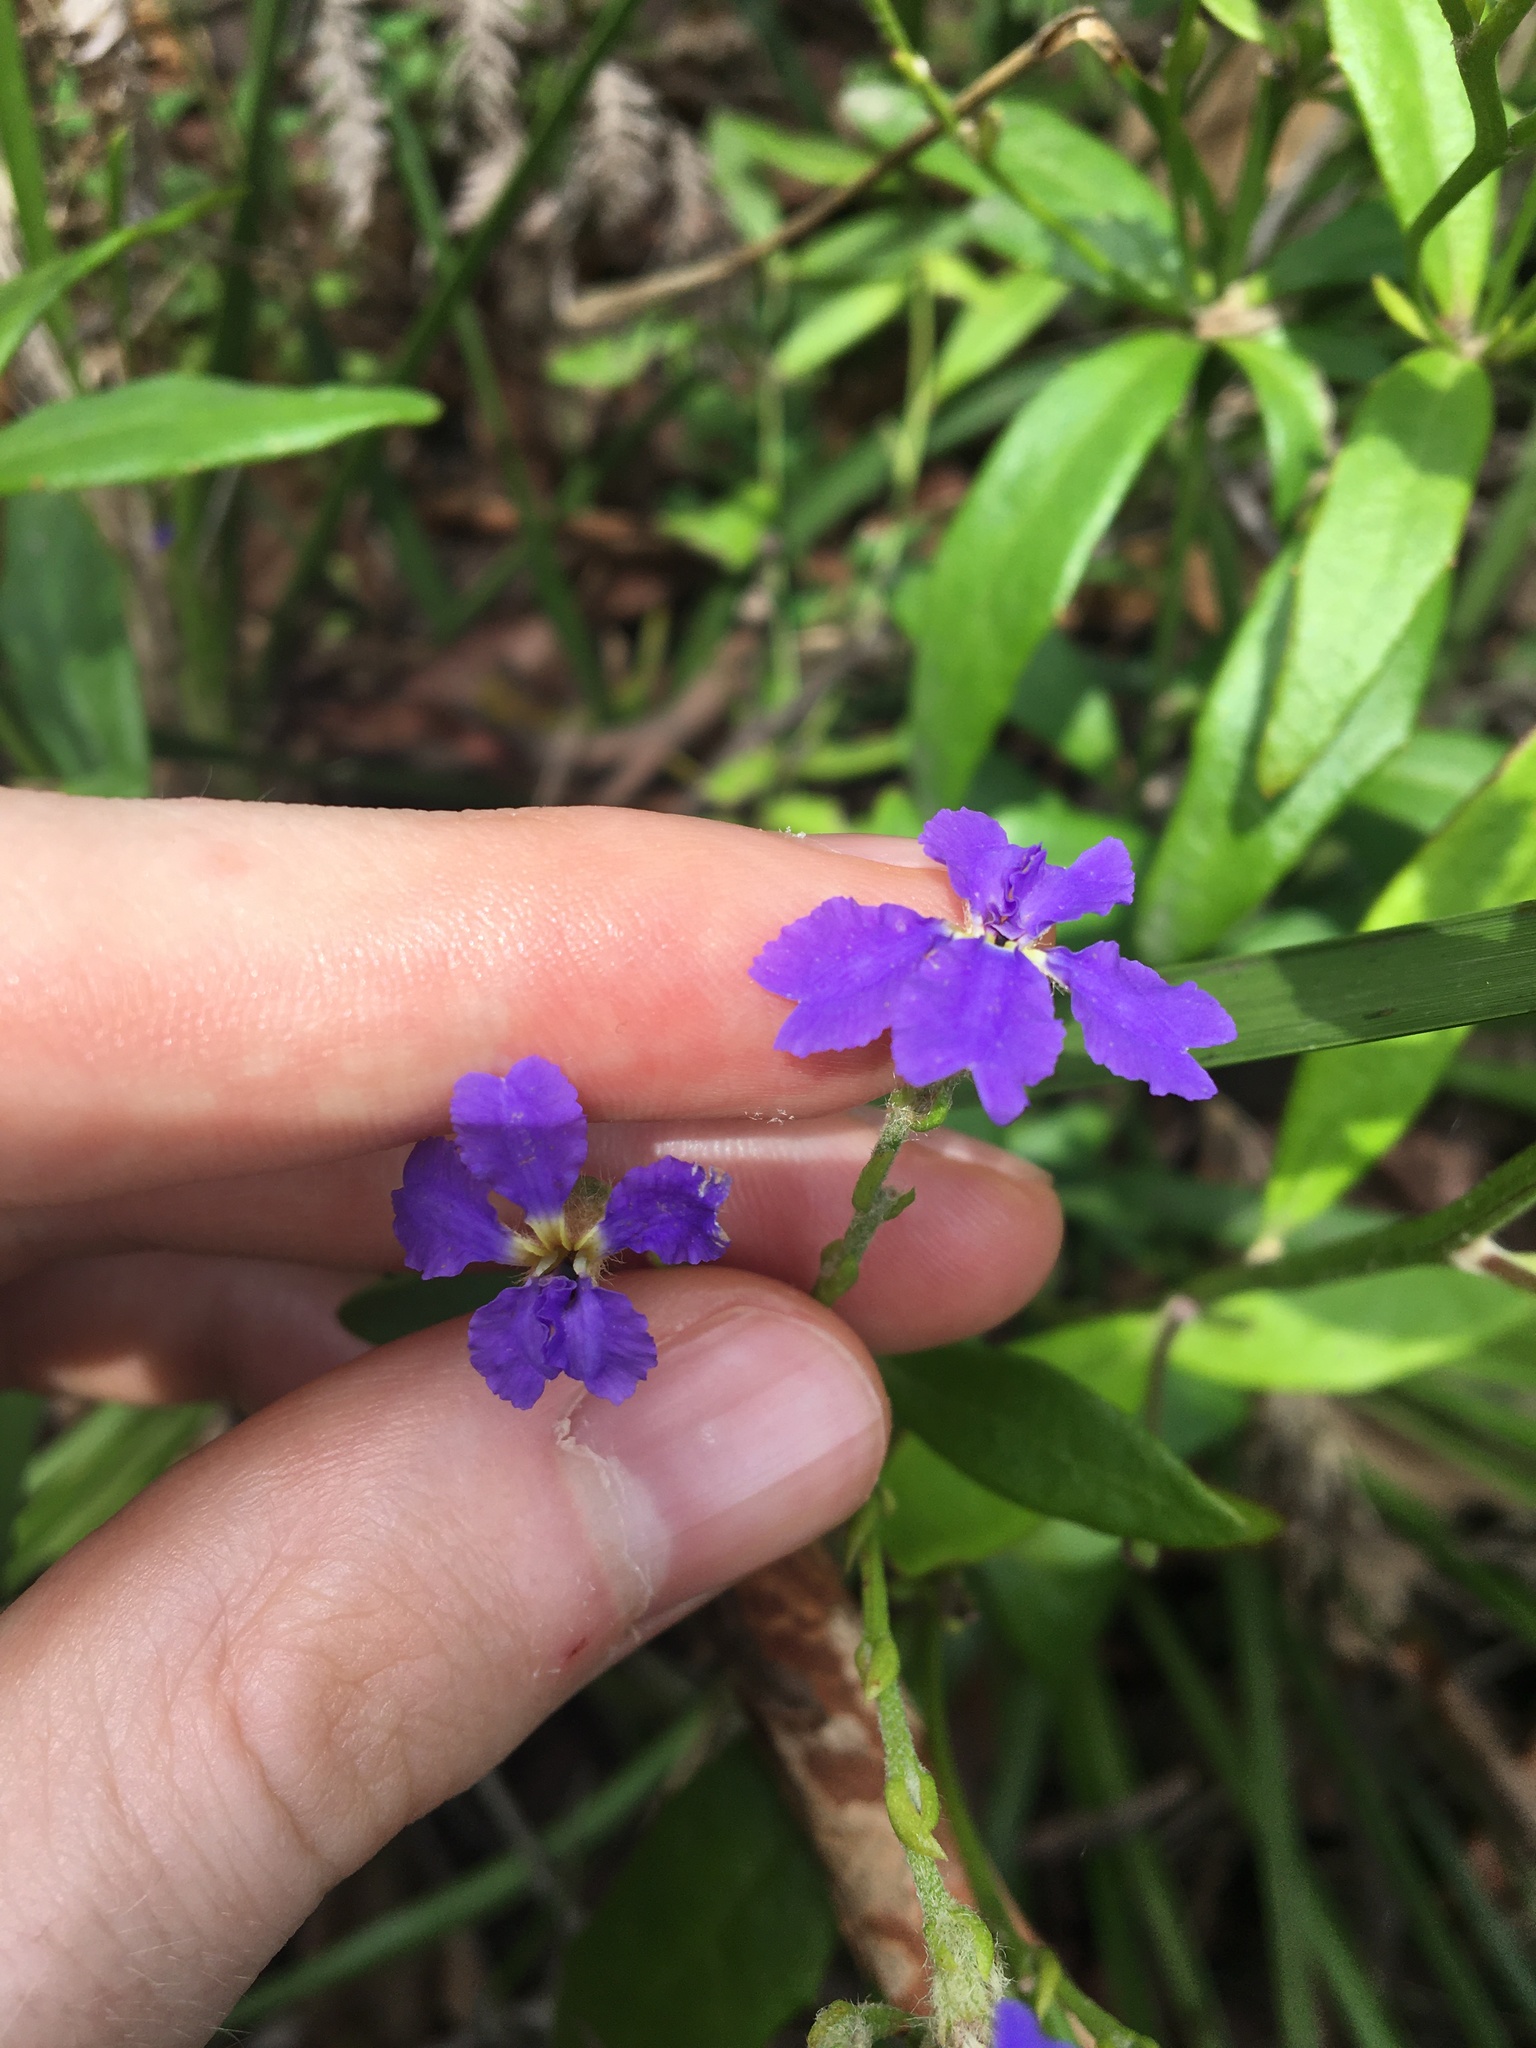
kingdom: Plantae
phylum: Tracheophyta
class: Magnoliopsida
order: Asterales
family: Goodeniaceae
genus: Dampiera
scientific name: Dampiera stricta
